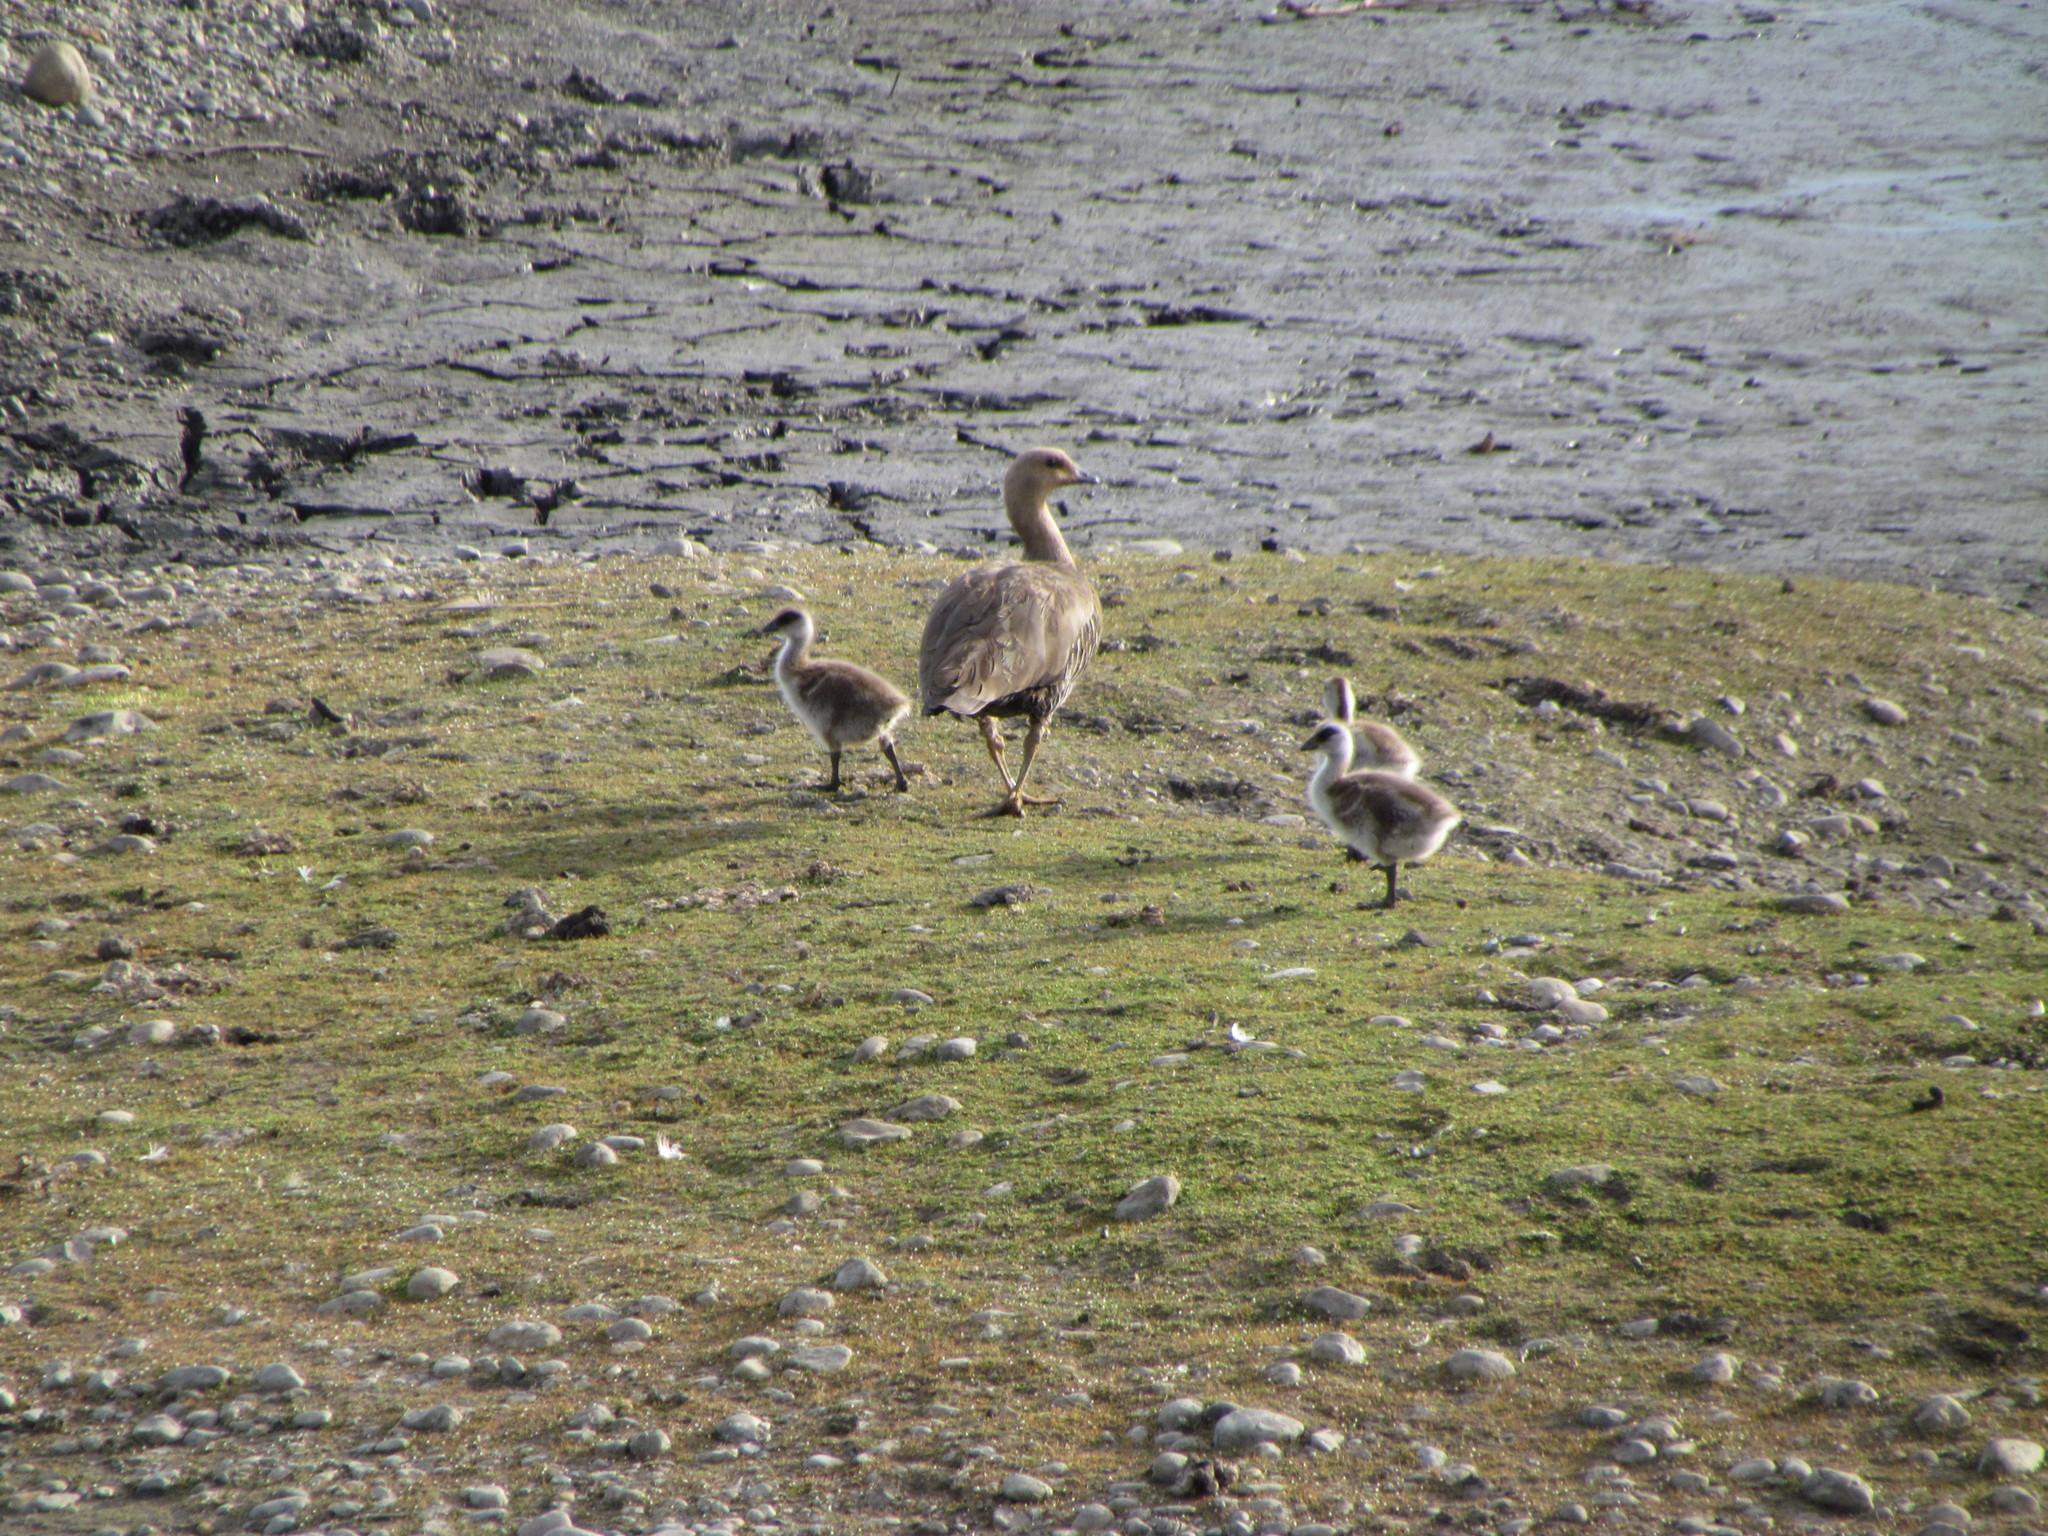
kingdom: Animalia
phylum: Chordata
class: Aves
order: Anseriformes
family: Anatidae
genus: Chloephaga
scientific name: Chloephaga picta
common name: Upland goose
